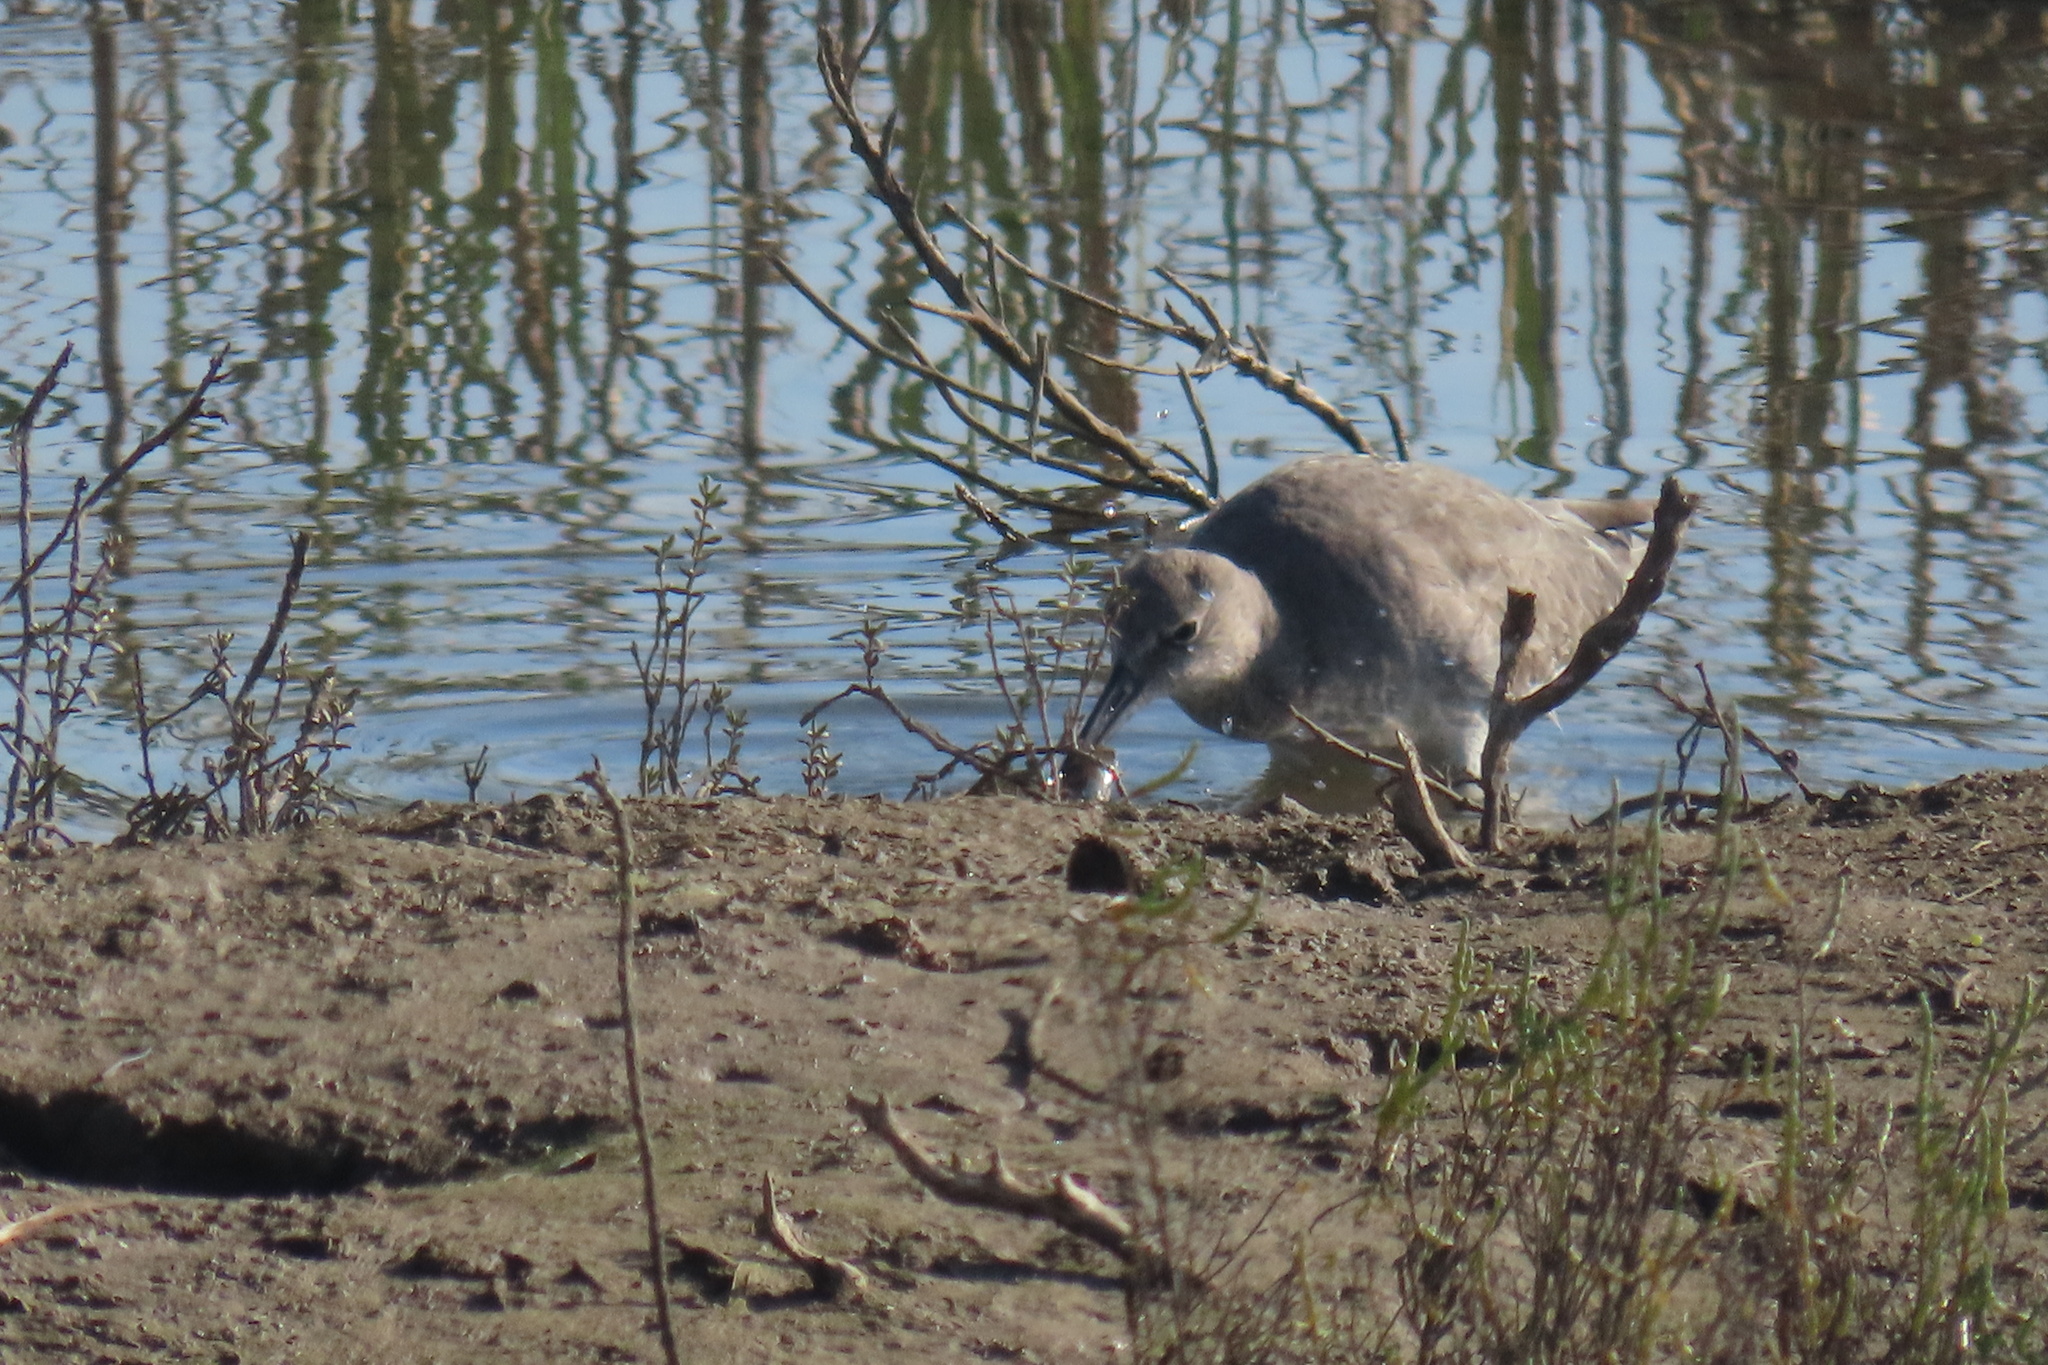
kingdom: Animalia
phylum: Chordata
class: Aves
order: Charadriiformes
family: Scolopacidae
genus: Tringa
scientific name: Tringa semipalmata
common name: Willet
